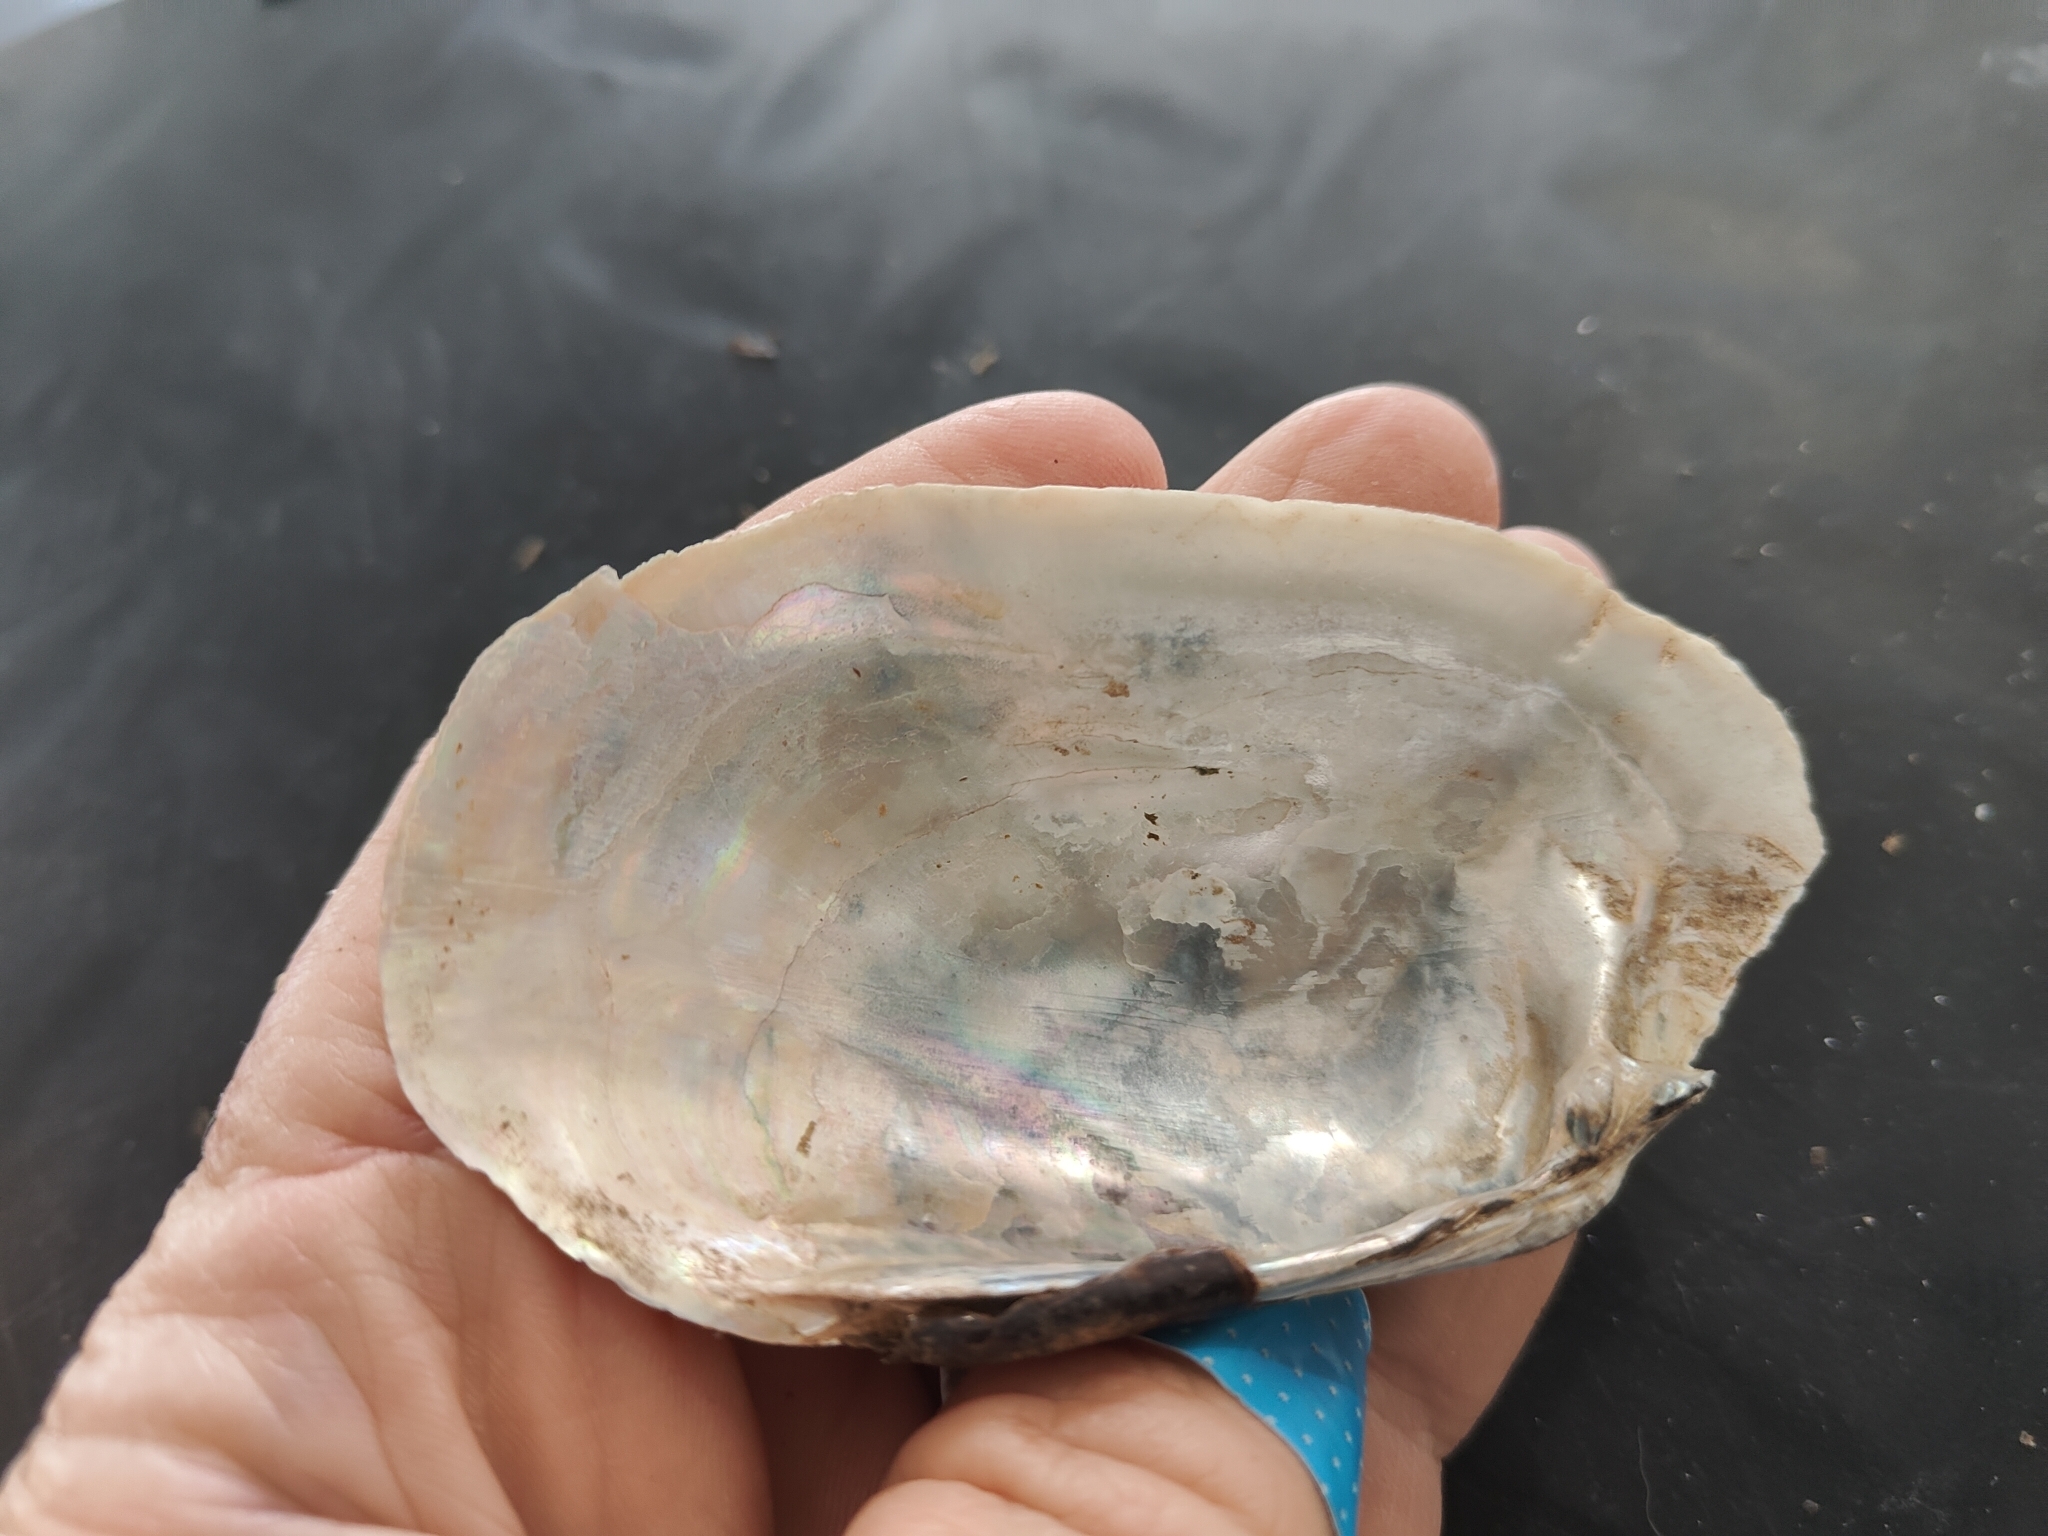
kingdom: Animalia
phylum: Mollusca
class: Bivalvia
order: Unionida
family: Unionidae
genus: Lampsilis
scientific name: Lampsilis siliquoidea
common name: Fatmucket
